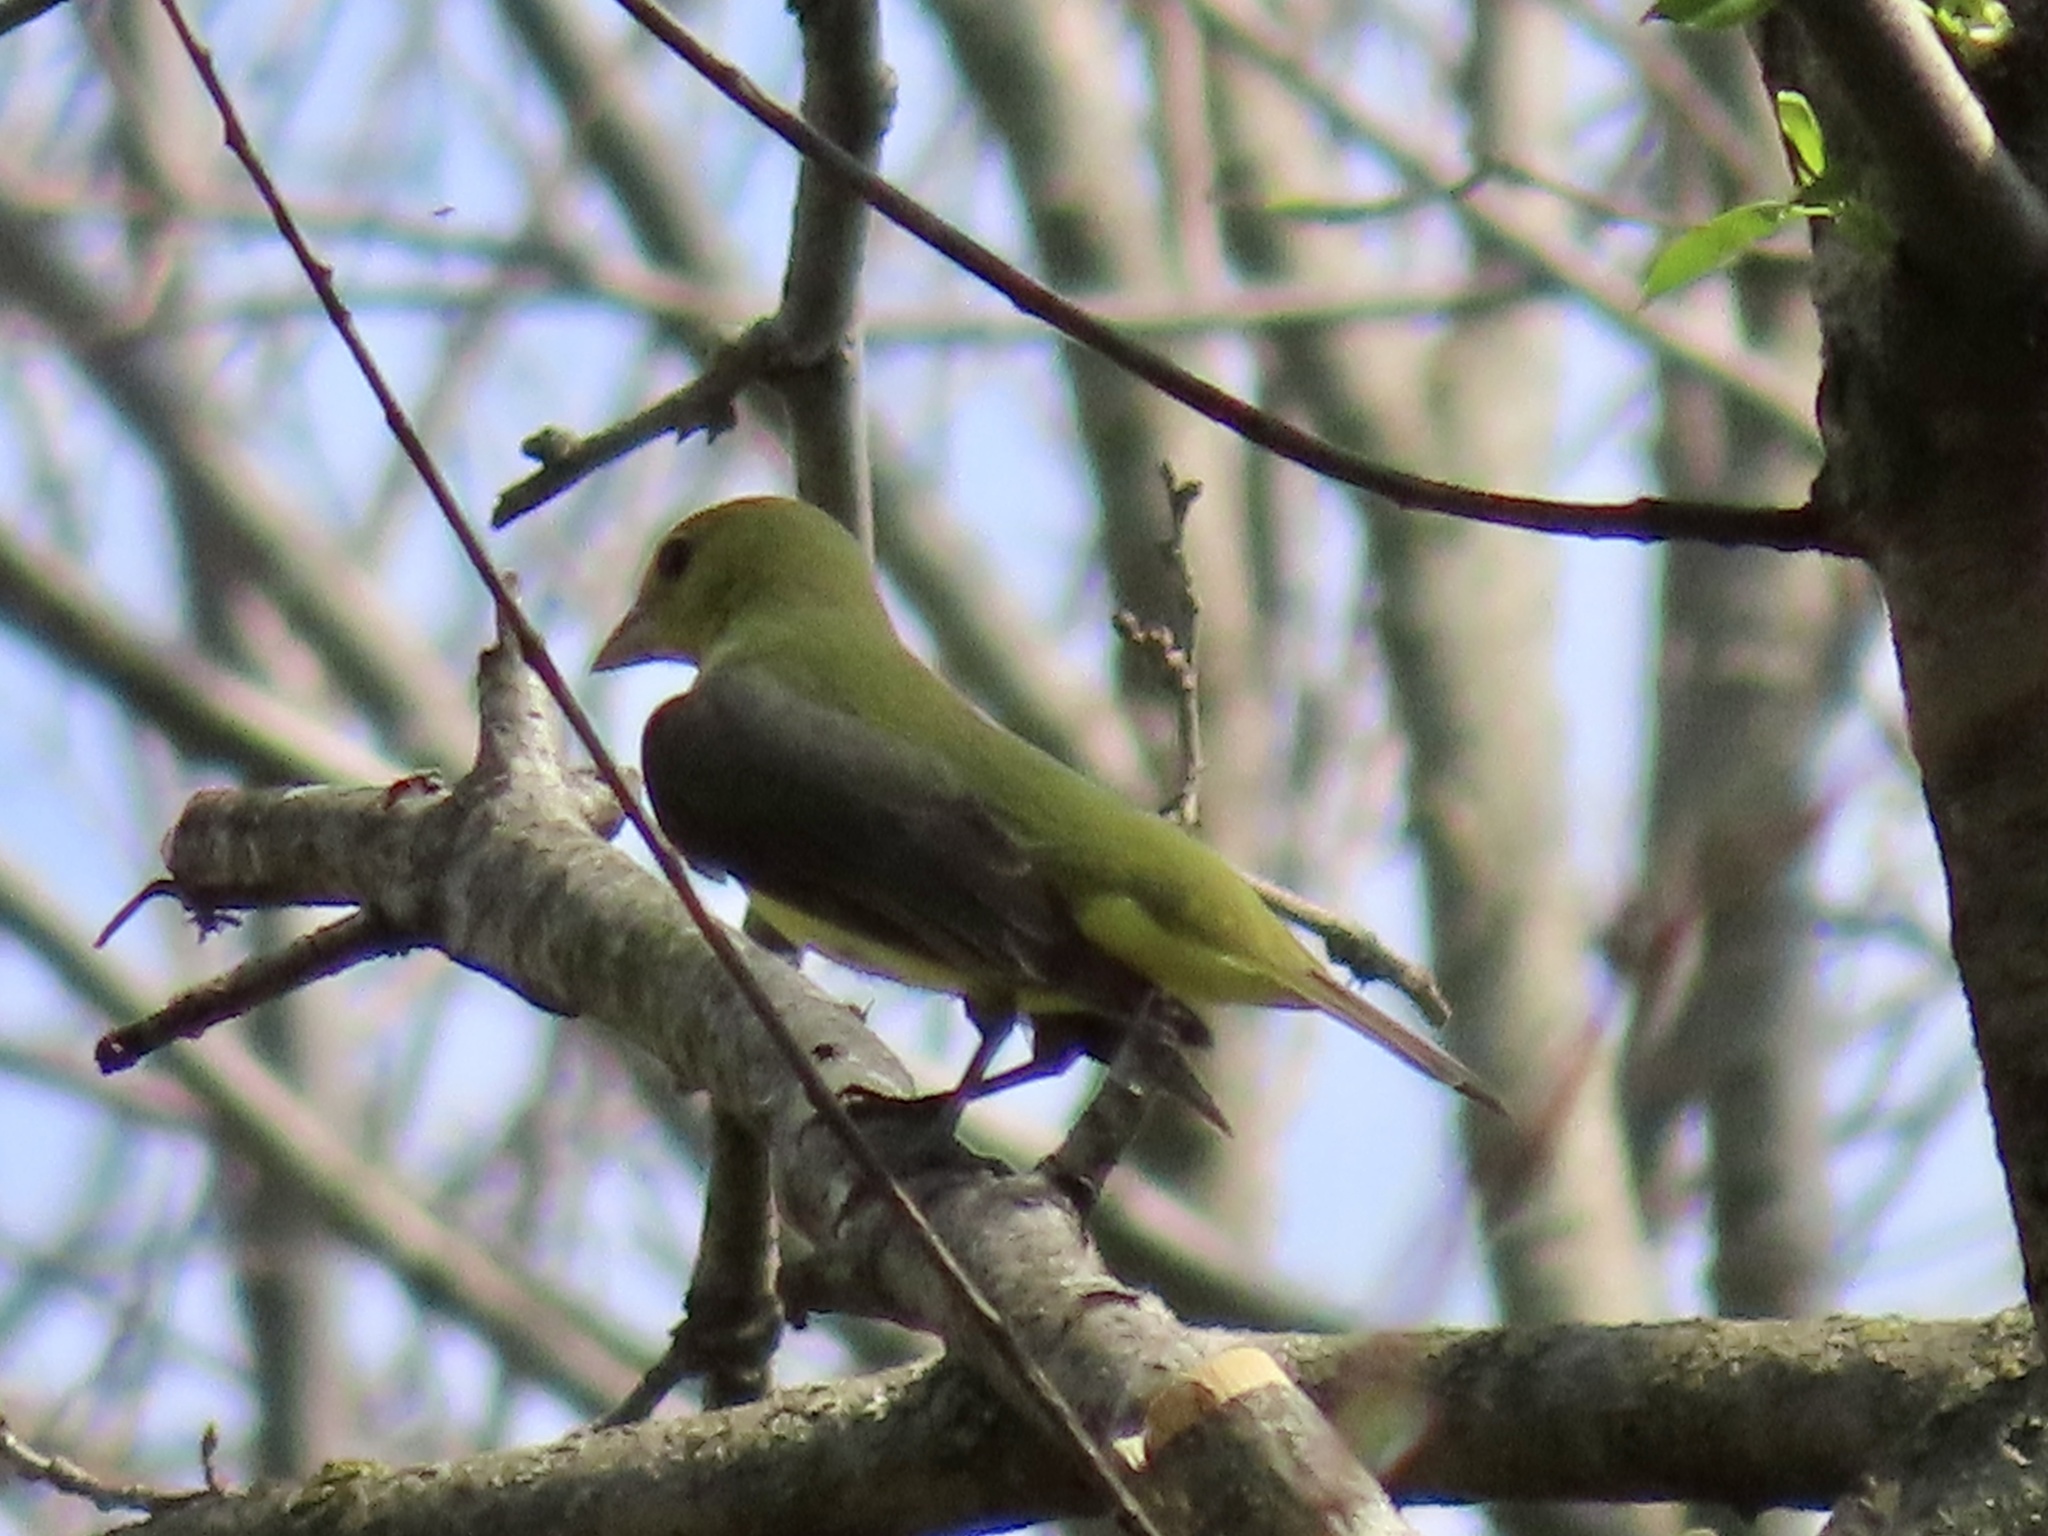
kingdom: Animalia
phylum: Chordata
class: Aves
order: Passeriformes
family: Cardinalidae
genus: Piranga
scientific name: Piranga olivacea
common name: Scarlet tanager
